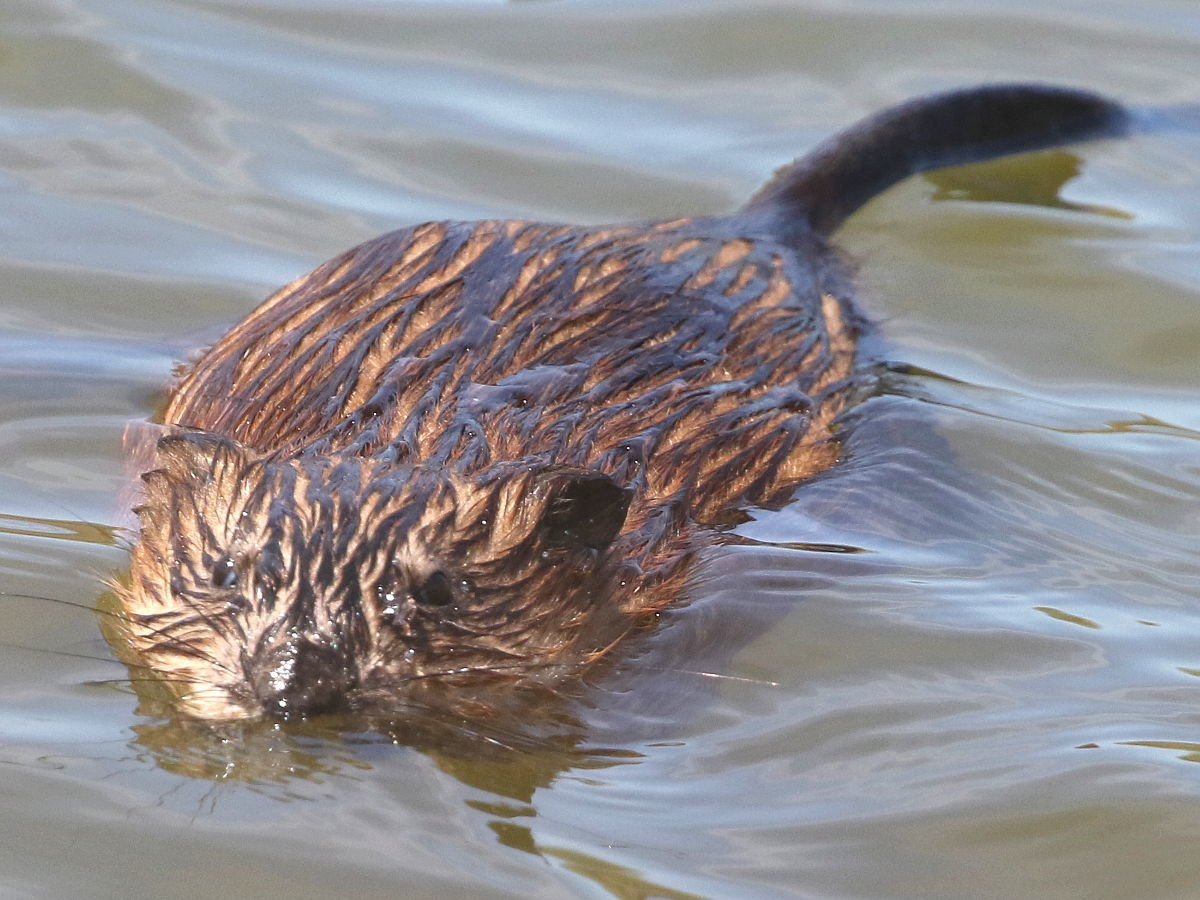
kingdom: Animalia
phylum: Chordata
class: Mammalia
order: Rodentia
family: Cricetidae
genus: Ondatra
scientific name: Ondatra zibethicus
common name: Muskrat
